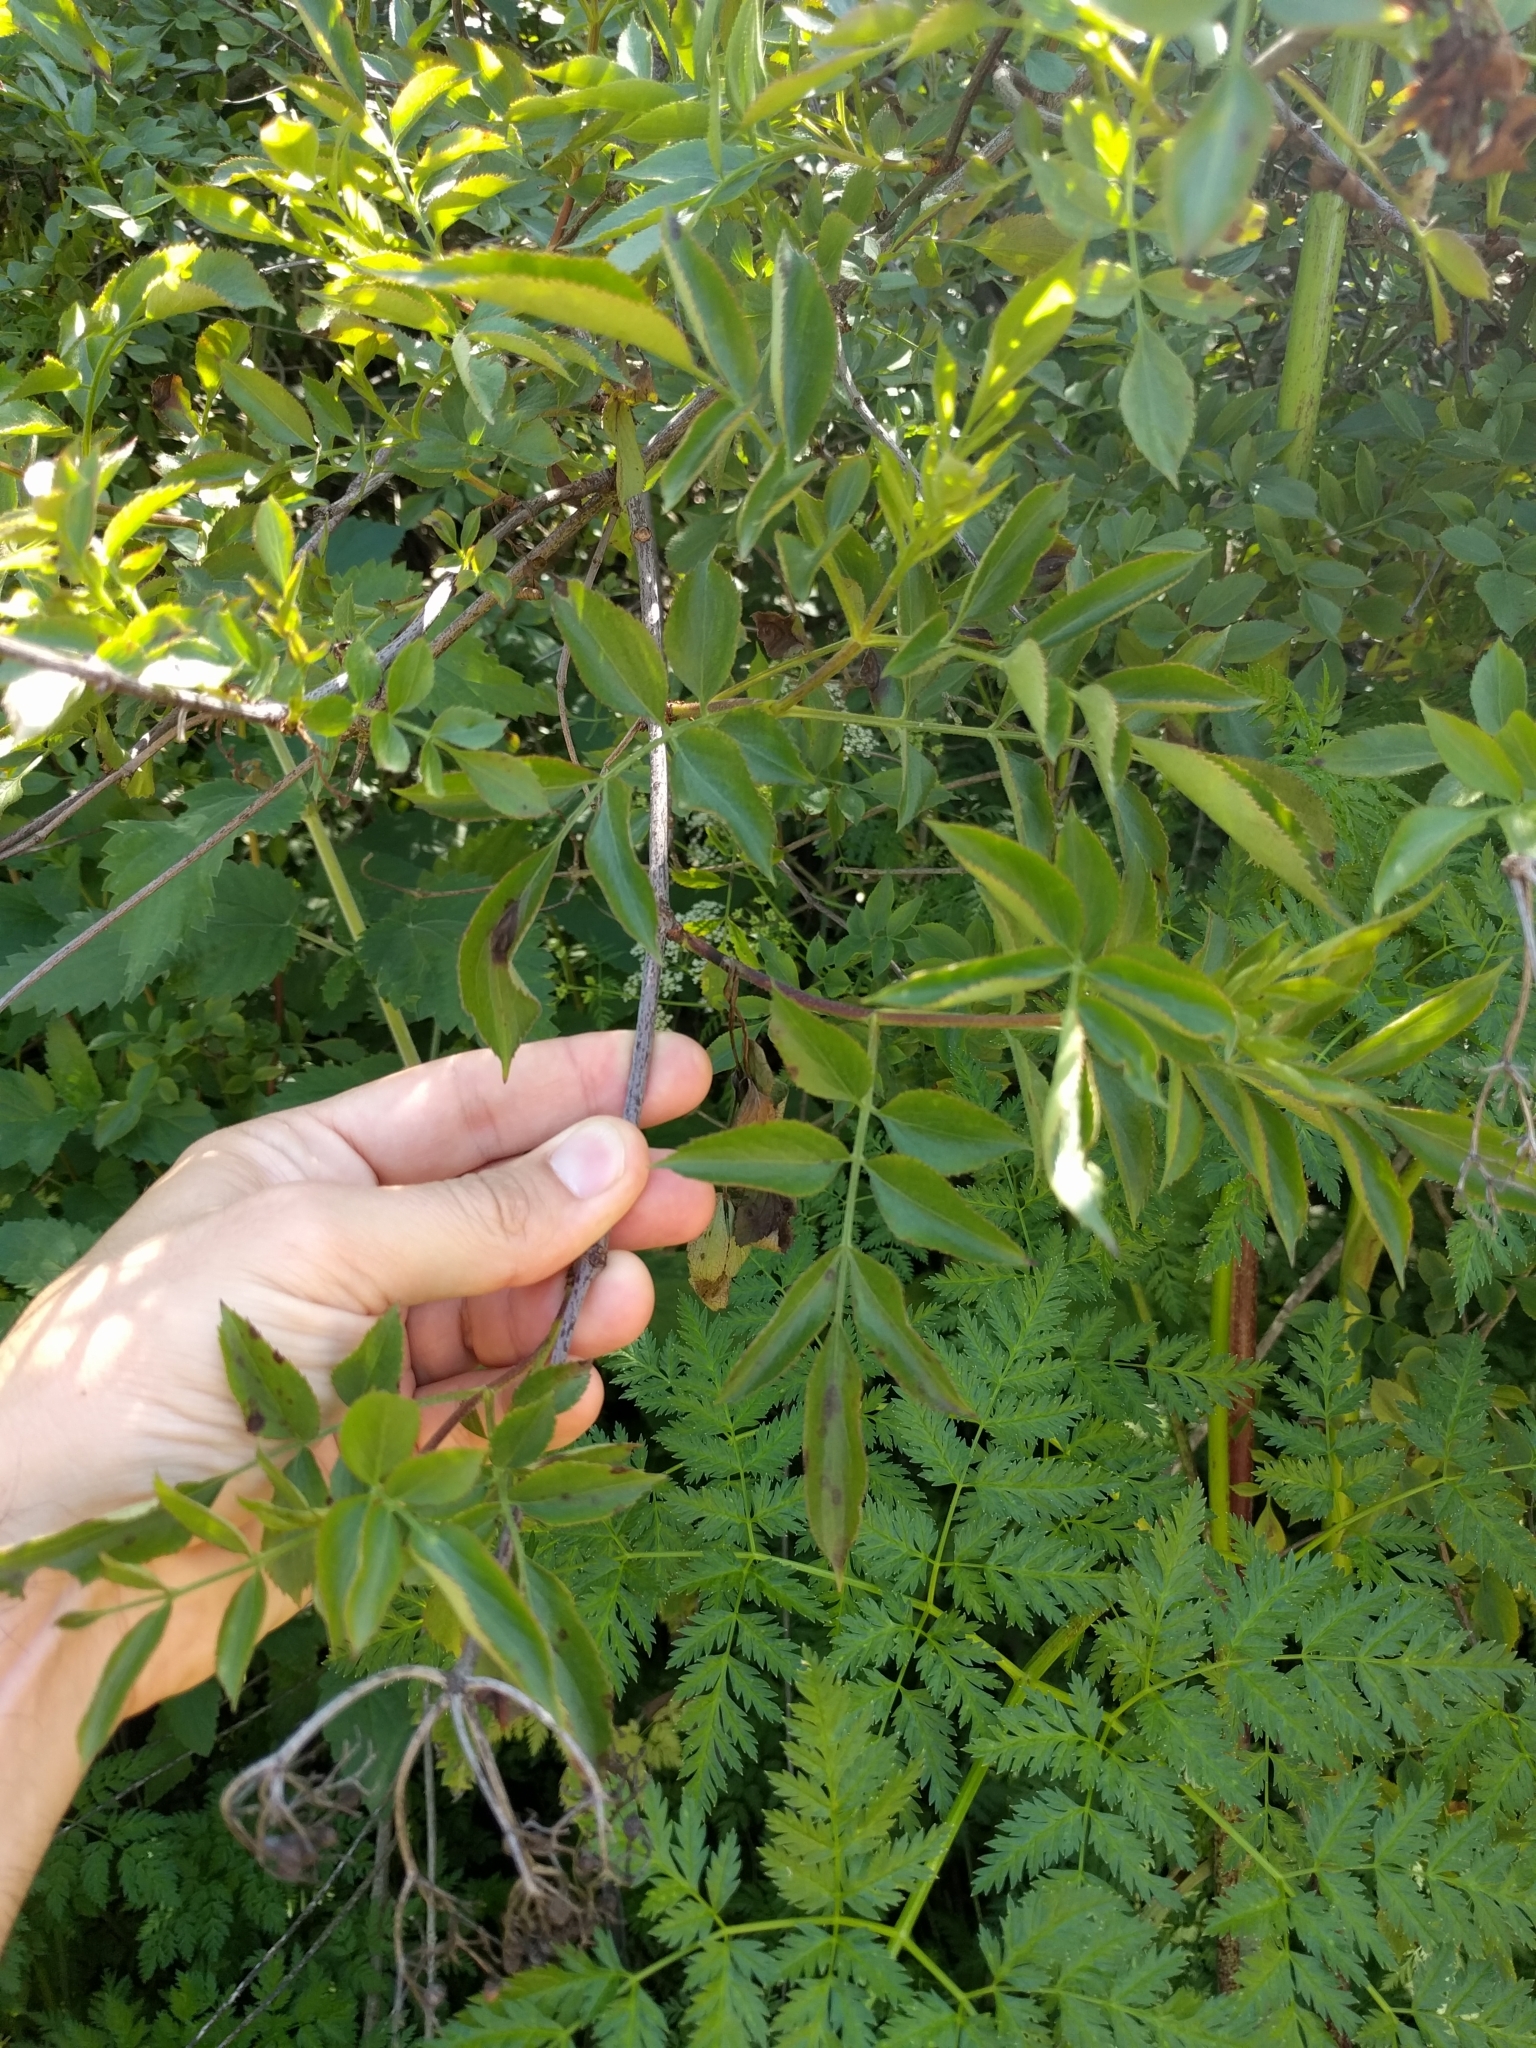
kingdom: Plantae
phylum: Tracheophyta
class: Magnoliopsida
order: Dipsacales
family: Viburnaceae
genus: Sambucus
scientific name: Sambucus cerulea
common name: Blue elder
